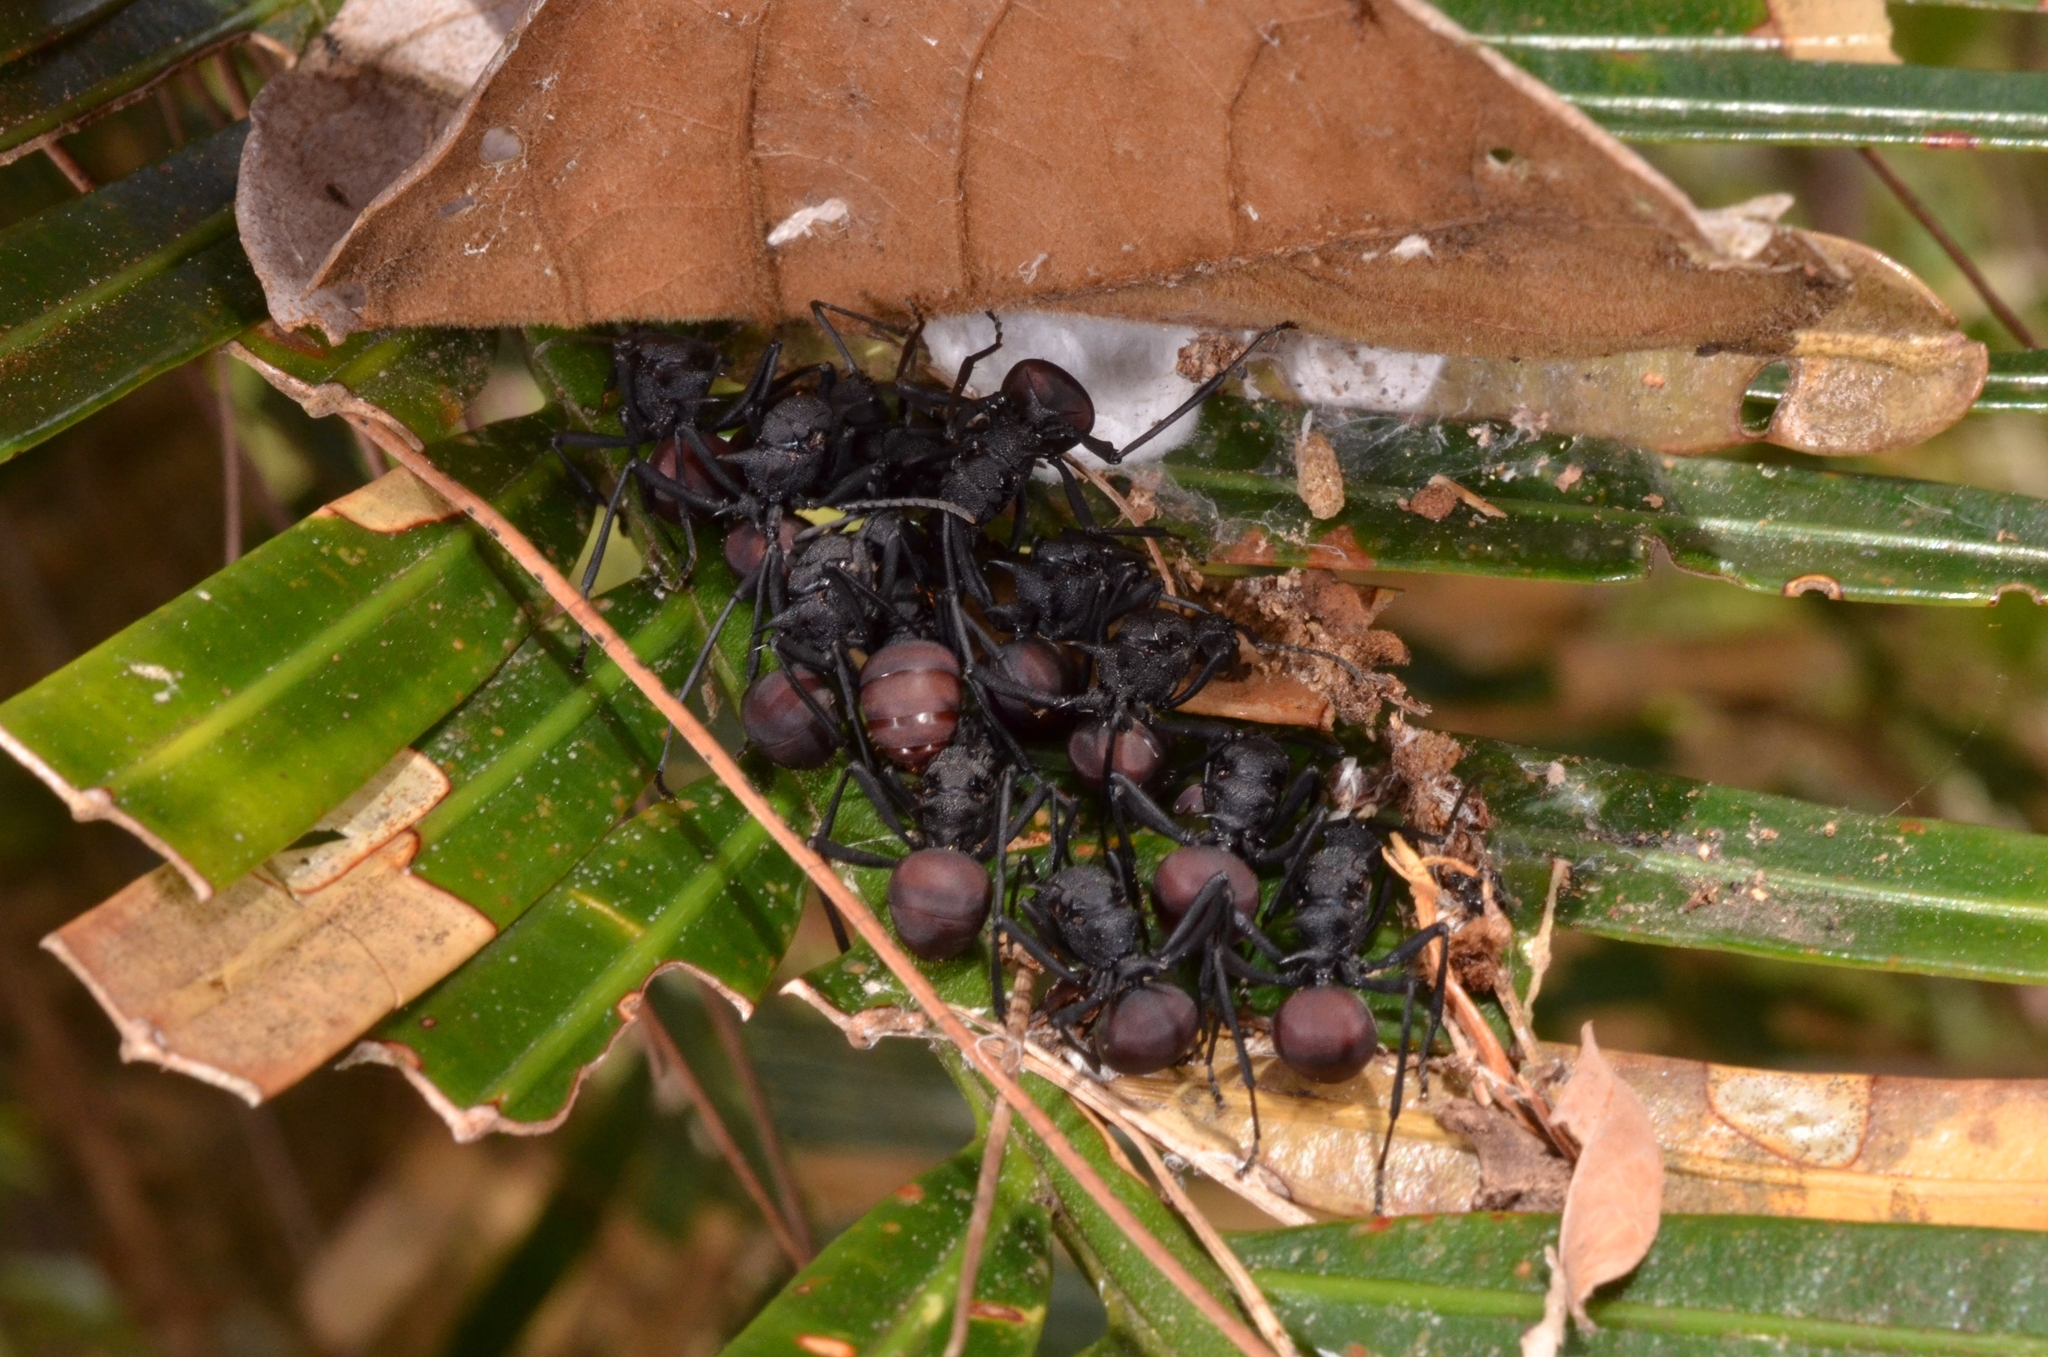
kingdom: Animalia
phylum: Arthropoda
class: Insecta
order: Hymenoptera
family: Formicidae
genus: Polyrhachis
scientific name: Polyrhachis armata
